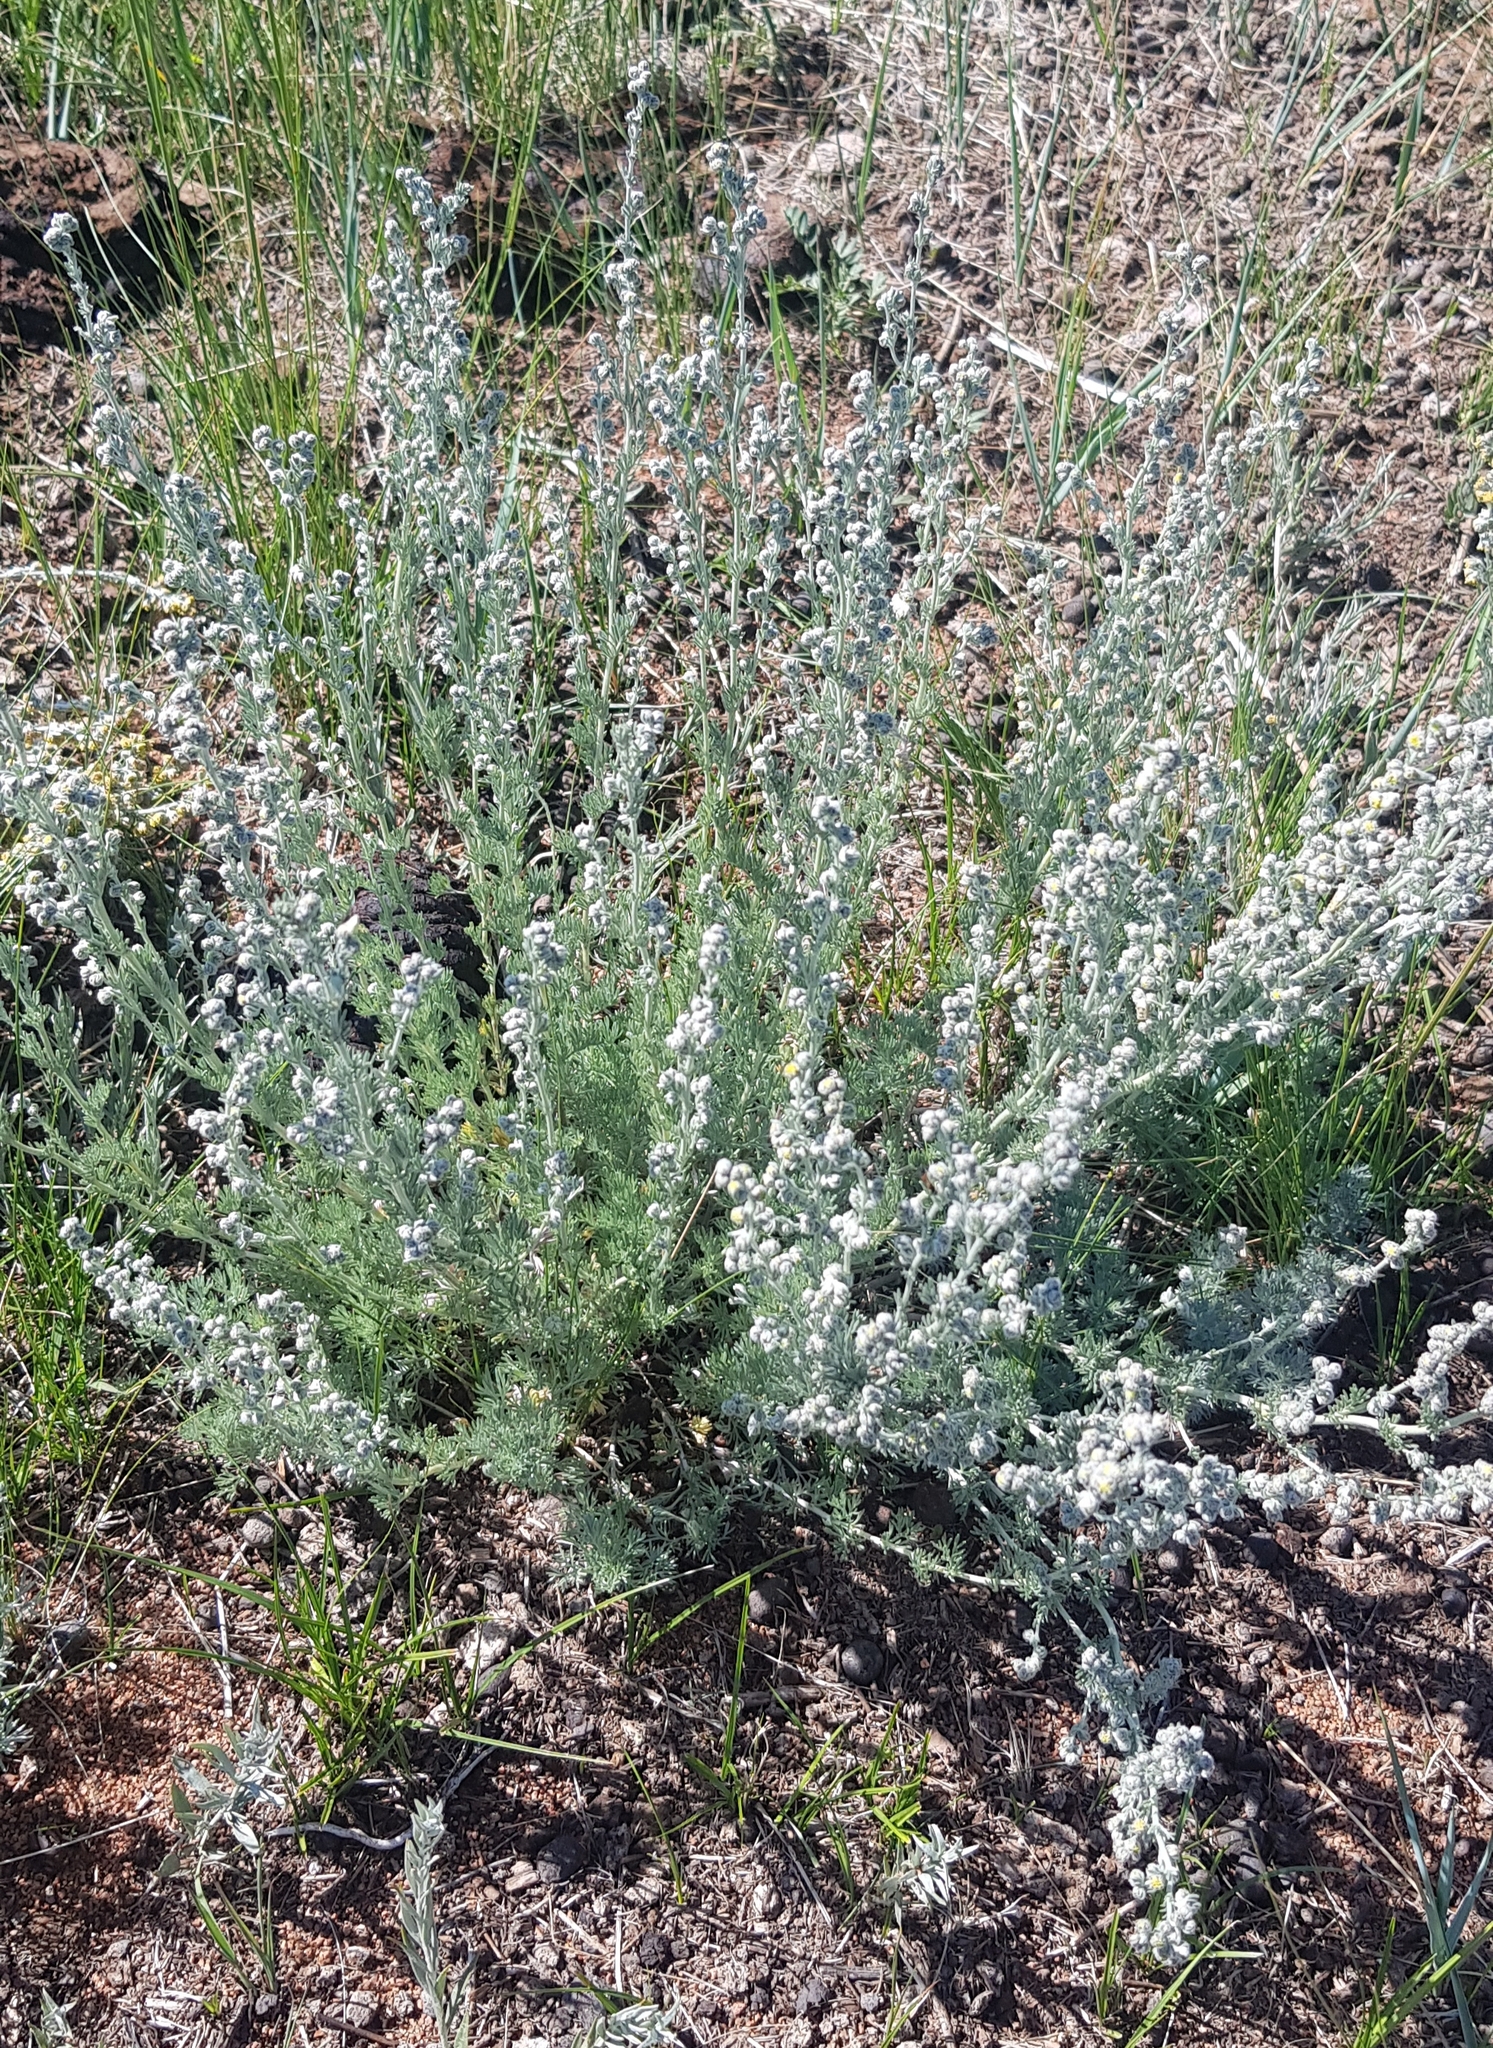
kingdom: Plantae
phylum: Tracheophyta
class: Magnoliopsida
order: Asterales
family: Asteraceae
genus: Artemisia
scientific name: Artemisia frigida
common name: Prairie sagewort
